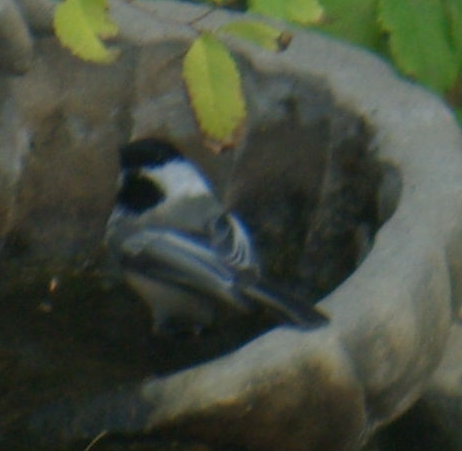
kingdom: Animalia
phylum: Chordata
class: Aves
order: Passeriformes
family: Paridae
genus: Poecile
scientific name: Poecile atricapillus
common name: Black-capped chickadee
